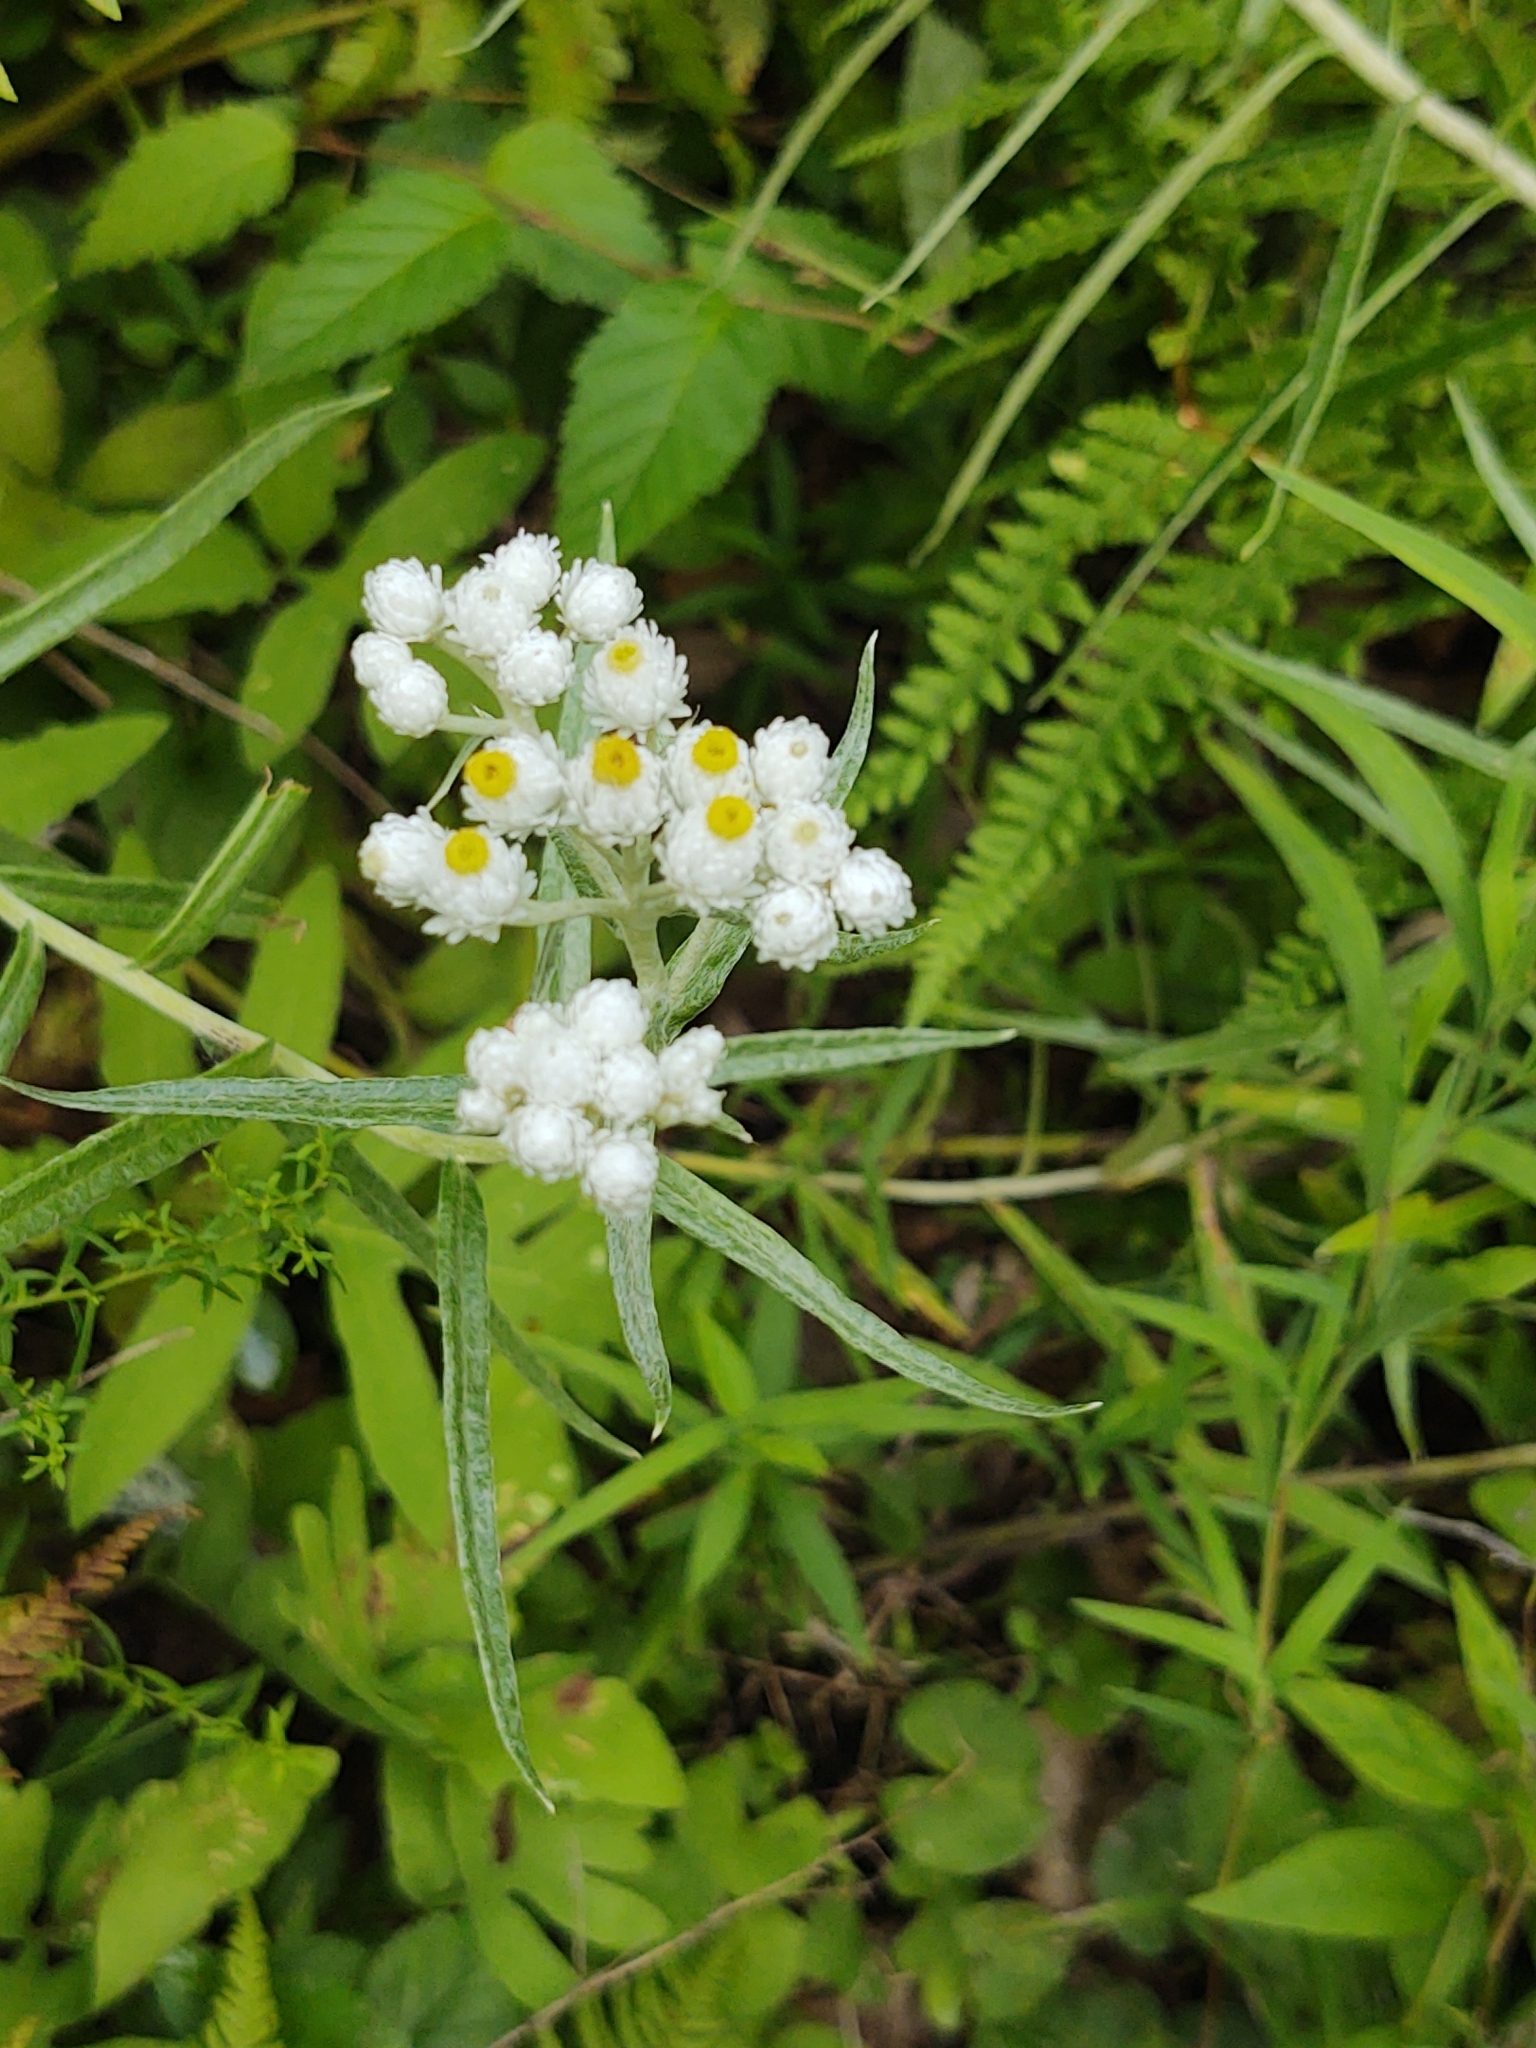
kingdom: Plantae
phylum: Tracheophyta
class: Magnoliopsida
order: Asterales
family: Asteraceae
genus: Anaphalis
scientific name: Anaphalis margaritacea
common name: Pearly everlasting
